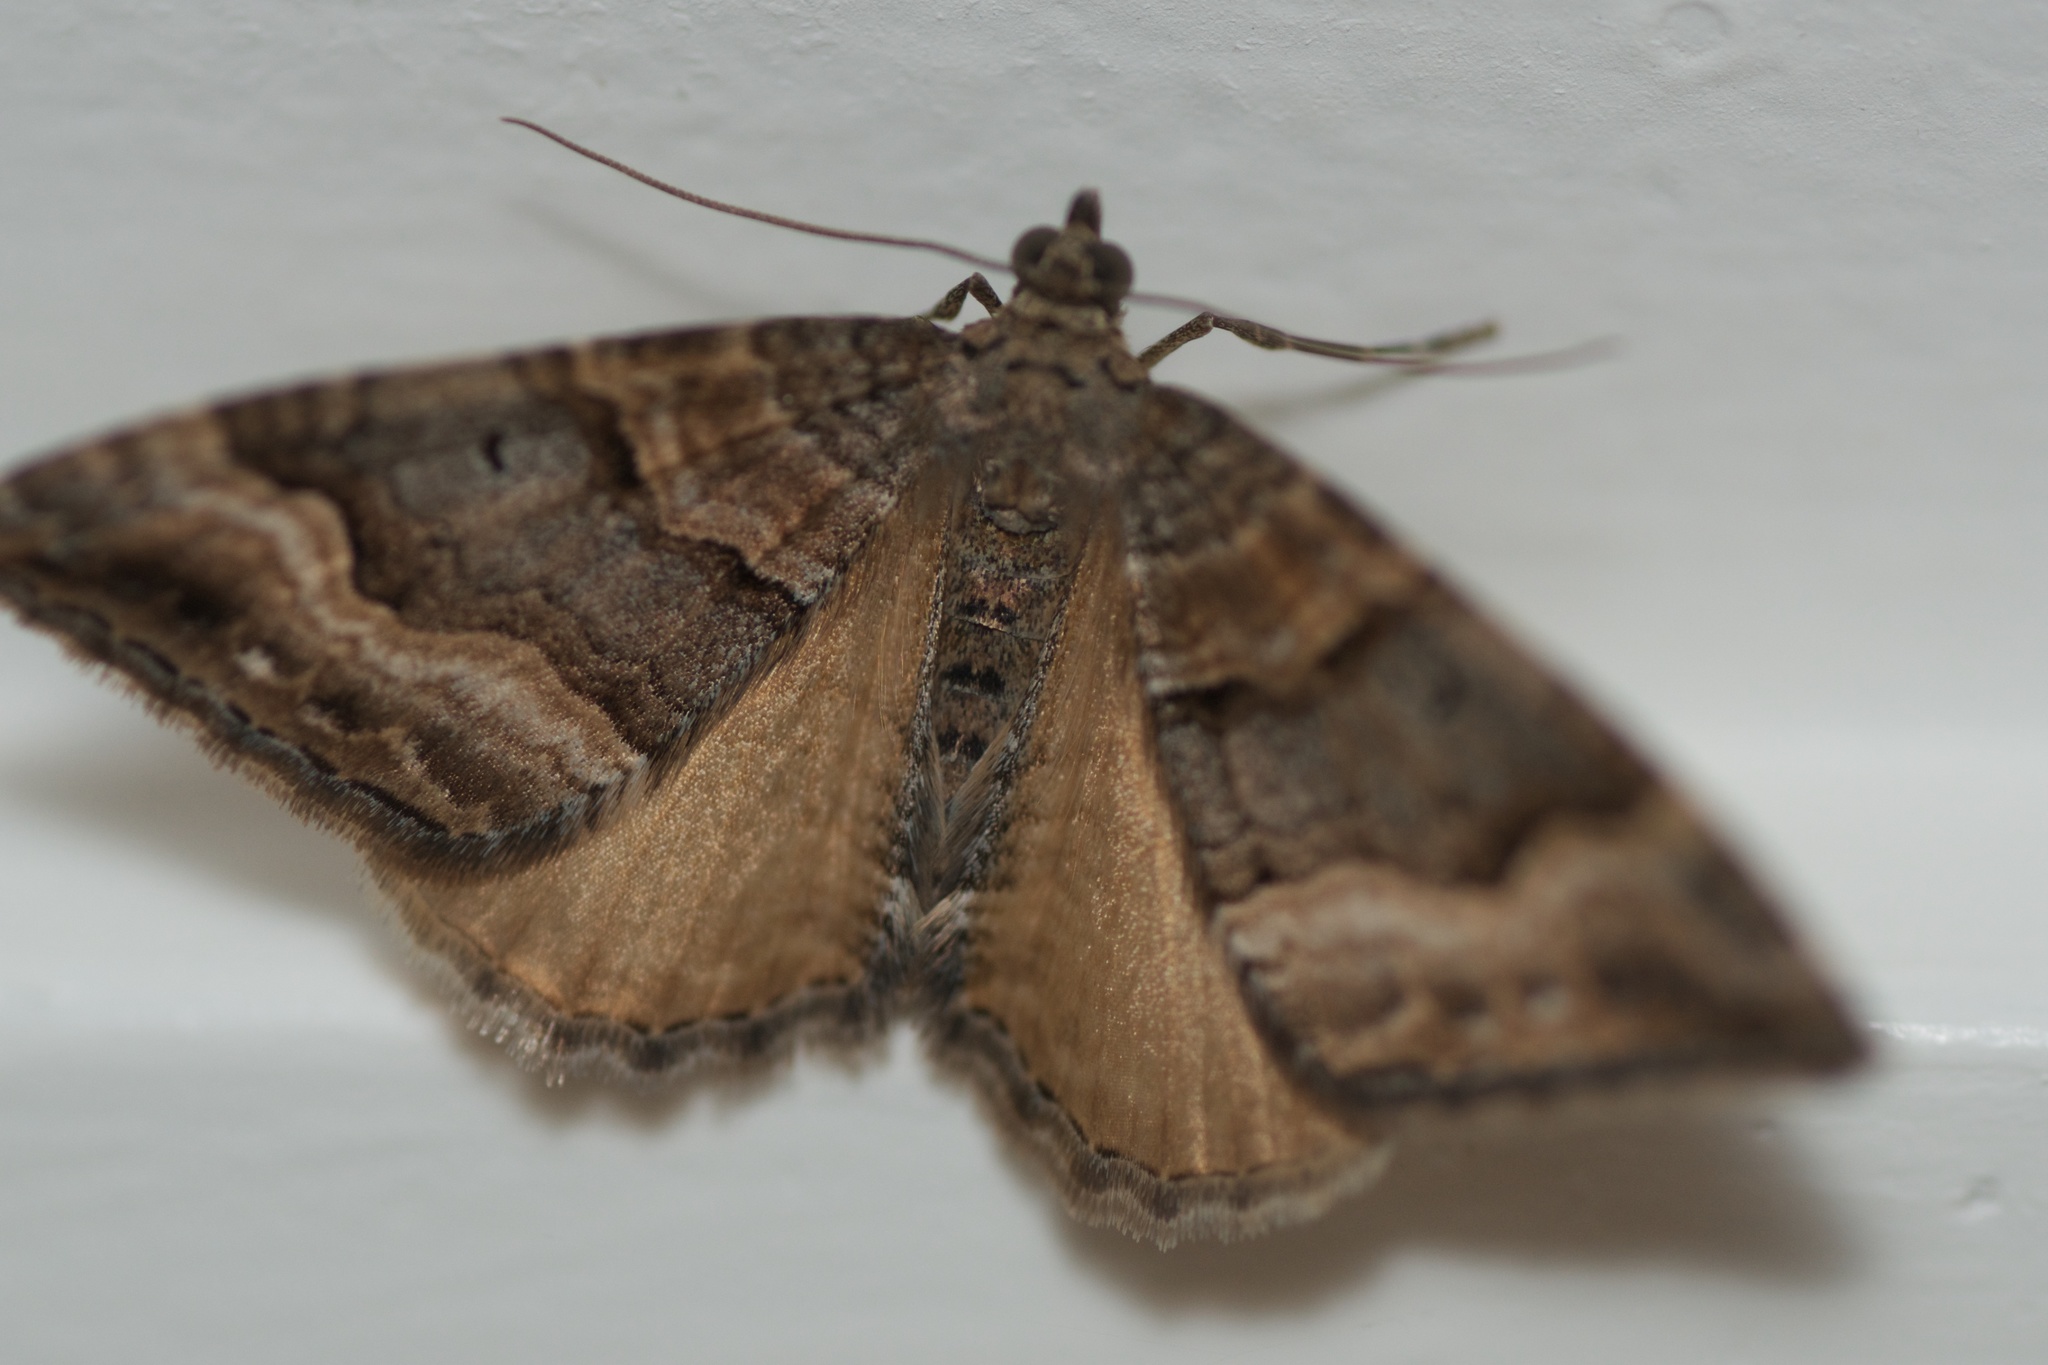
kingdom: Animalia
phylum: Arthropoda
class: Insecta
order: Lepidoptera
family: Geometridae
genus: Hydriomena
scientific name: Hydriomena deltoidata
